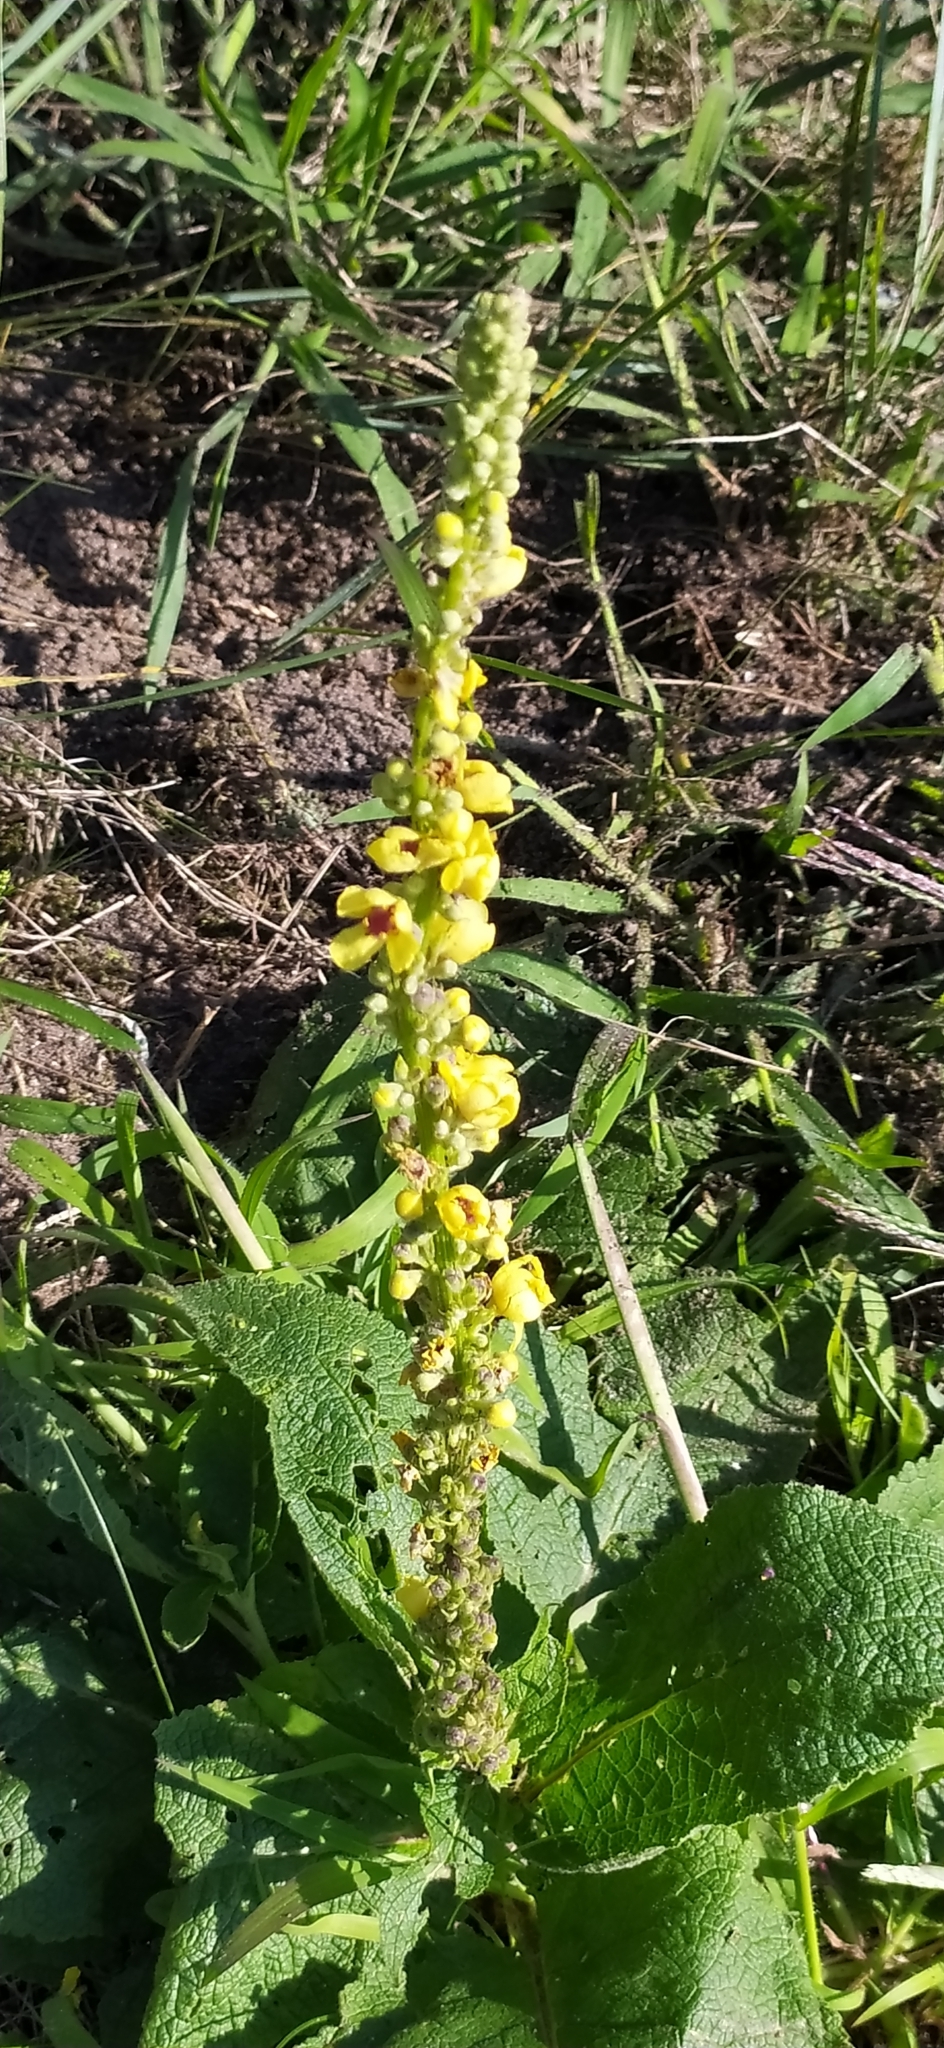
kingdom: Plantae
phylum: Tracheophyta
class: Magnoliopsida
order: Lamiales
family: Scrophulariaceae
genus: Verbascum
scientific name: Verbascum nigrum
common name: Dark mullein
